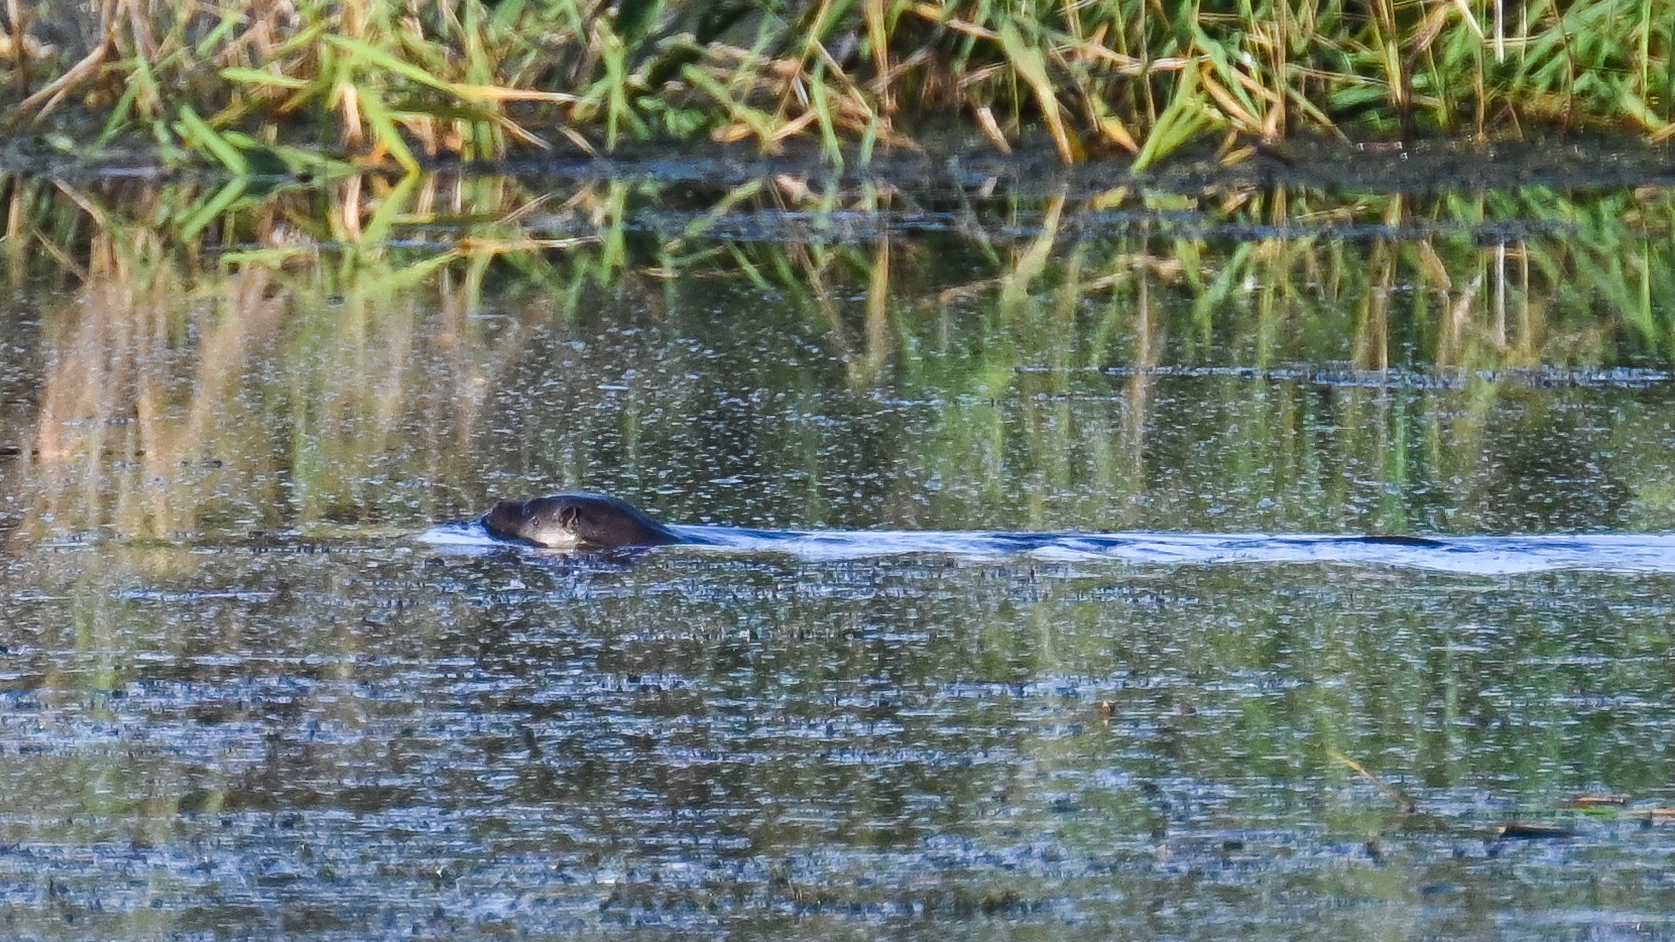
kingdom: Animalia
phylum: Chordata
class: Mammalia
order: Carnivora
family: Mustelidae
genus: Lutra
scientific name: Lutra lutra
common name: European otter
